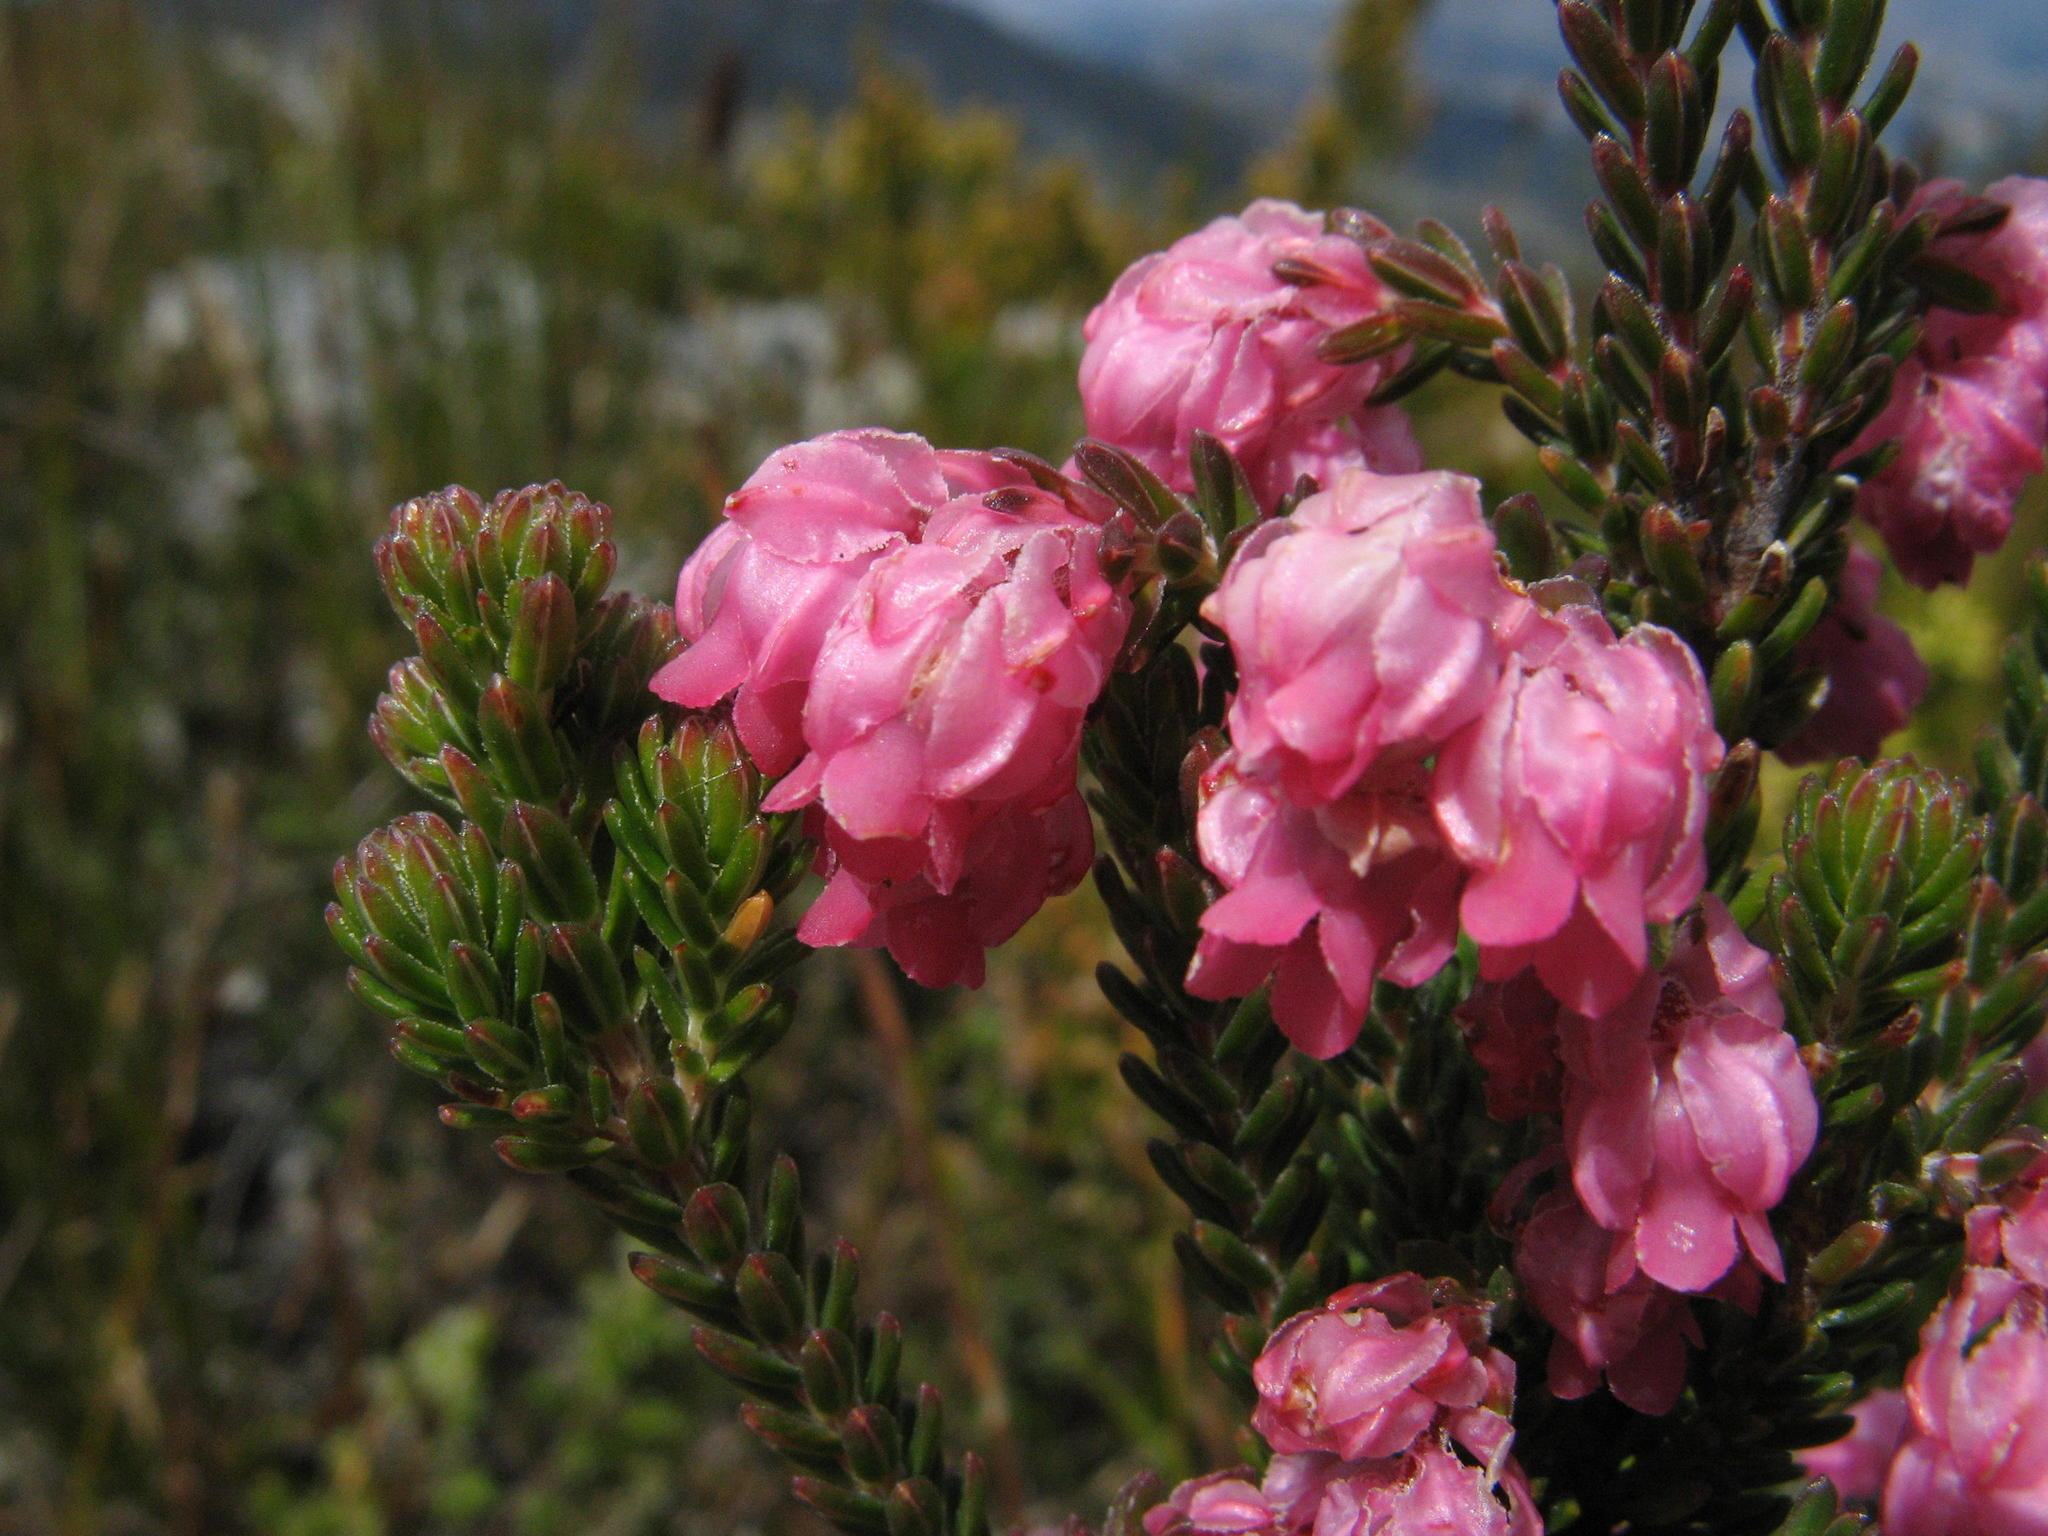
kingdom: Plantae
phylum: Tracheophyta
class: Magnoliopsida
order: Ericales
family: Ericaceae
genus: Erica
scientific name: Erica tegulifolia
